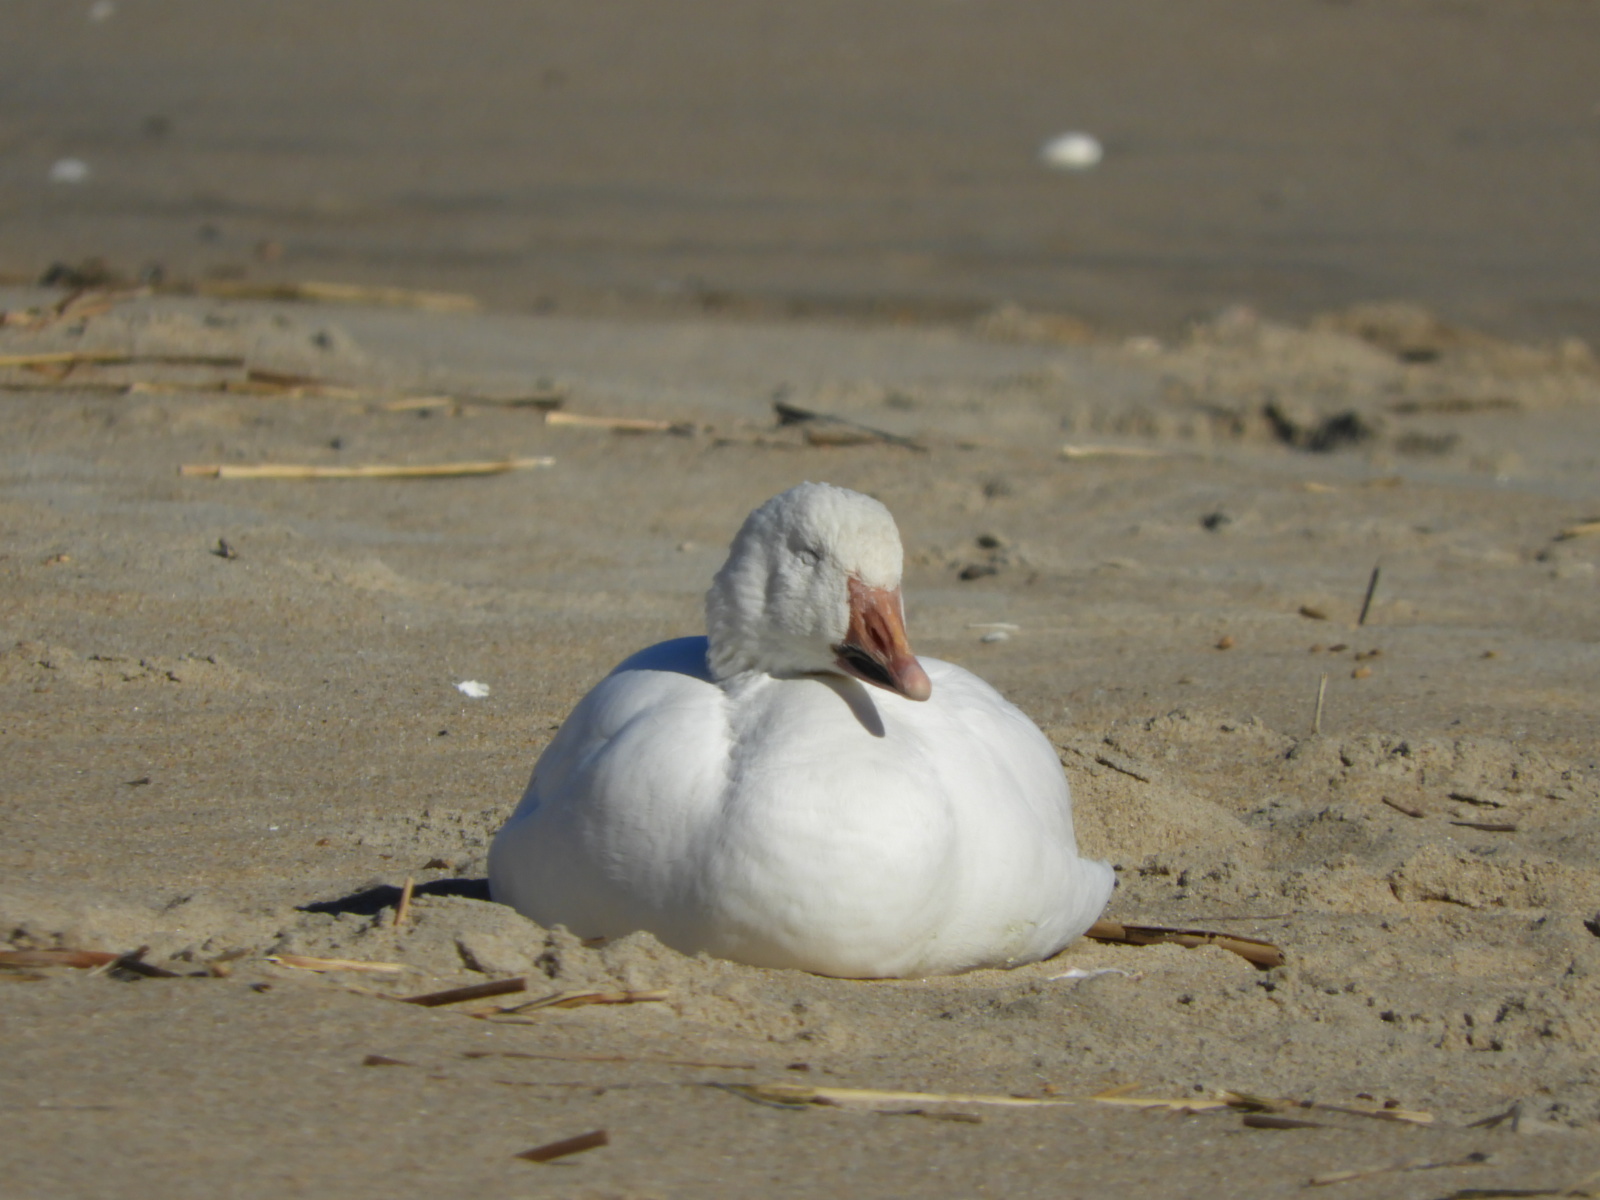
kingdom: Animalia
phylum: Chordata
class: Aves
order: Anseriformes
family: Anatidae
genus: Anser
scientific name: Anser caerulescens
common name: Snow goose
